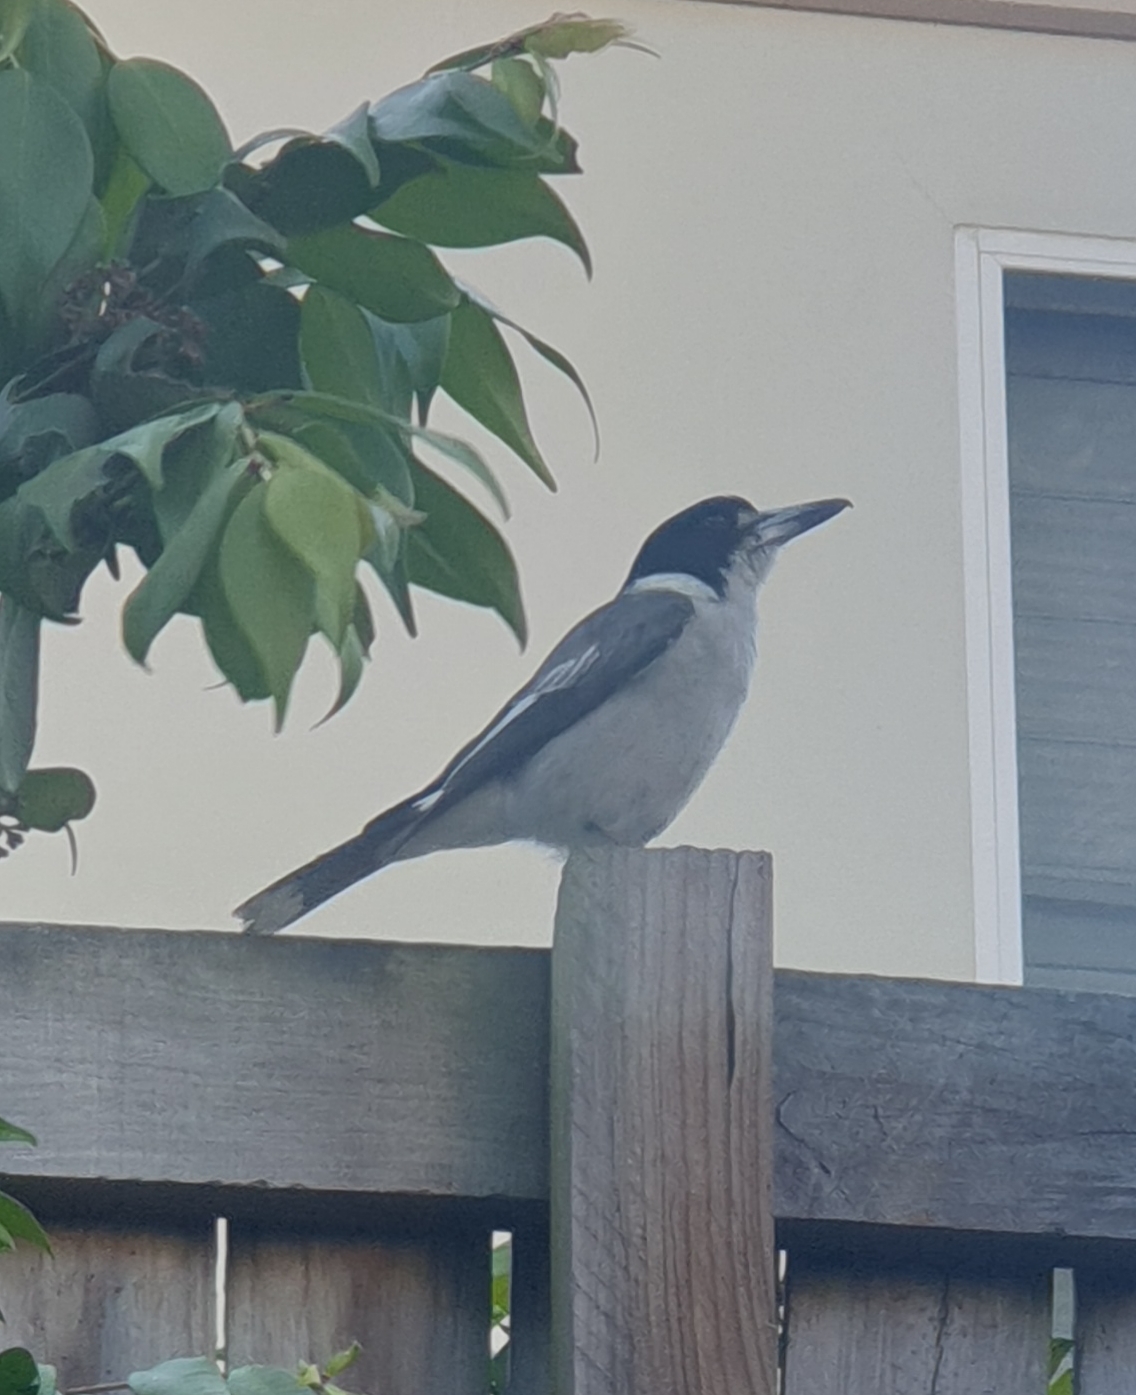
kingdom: Animalia
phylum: Chordata
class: Aves
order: Passeriformes
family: Cracticidae
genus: Cracticus
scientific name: Cracticus torquatus
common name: Grey butcherbird
